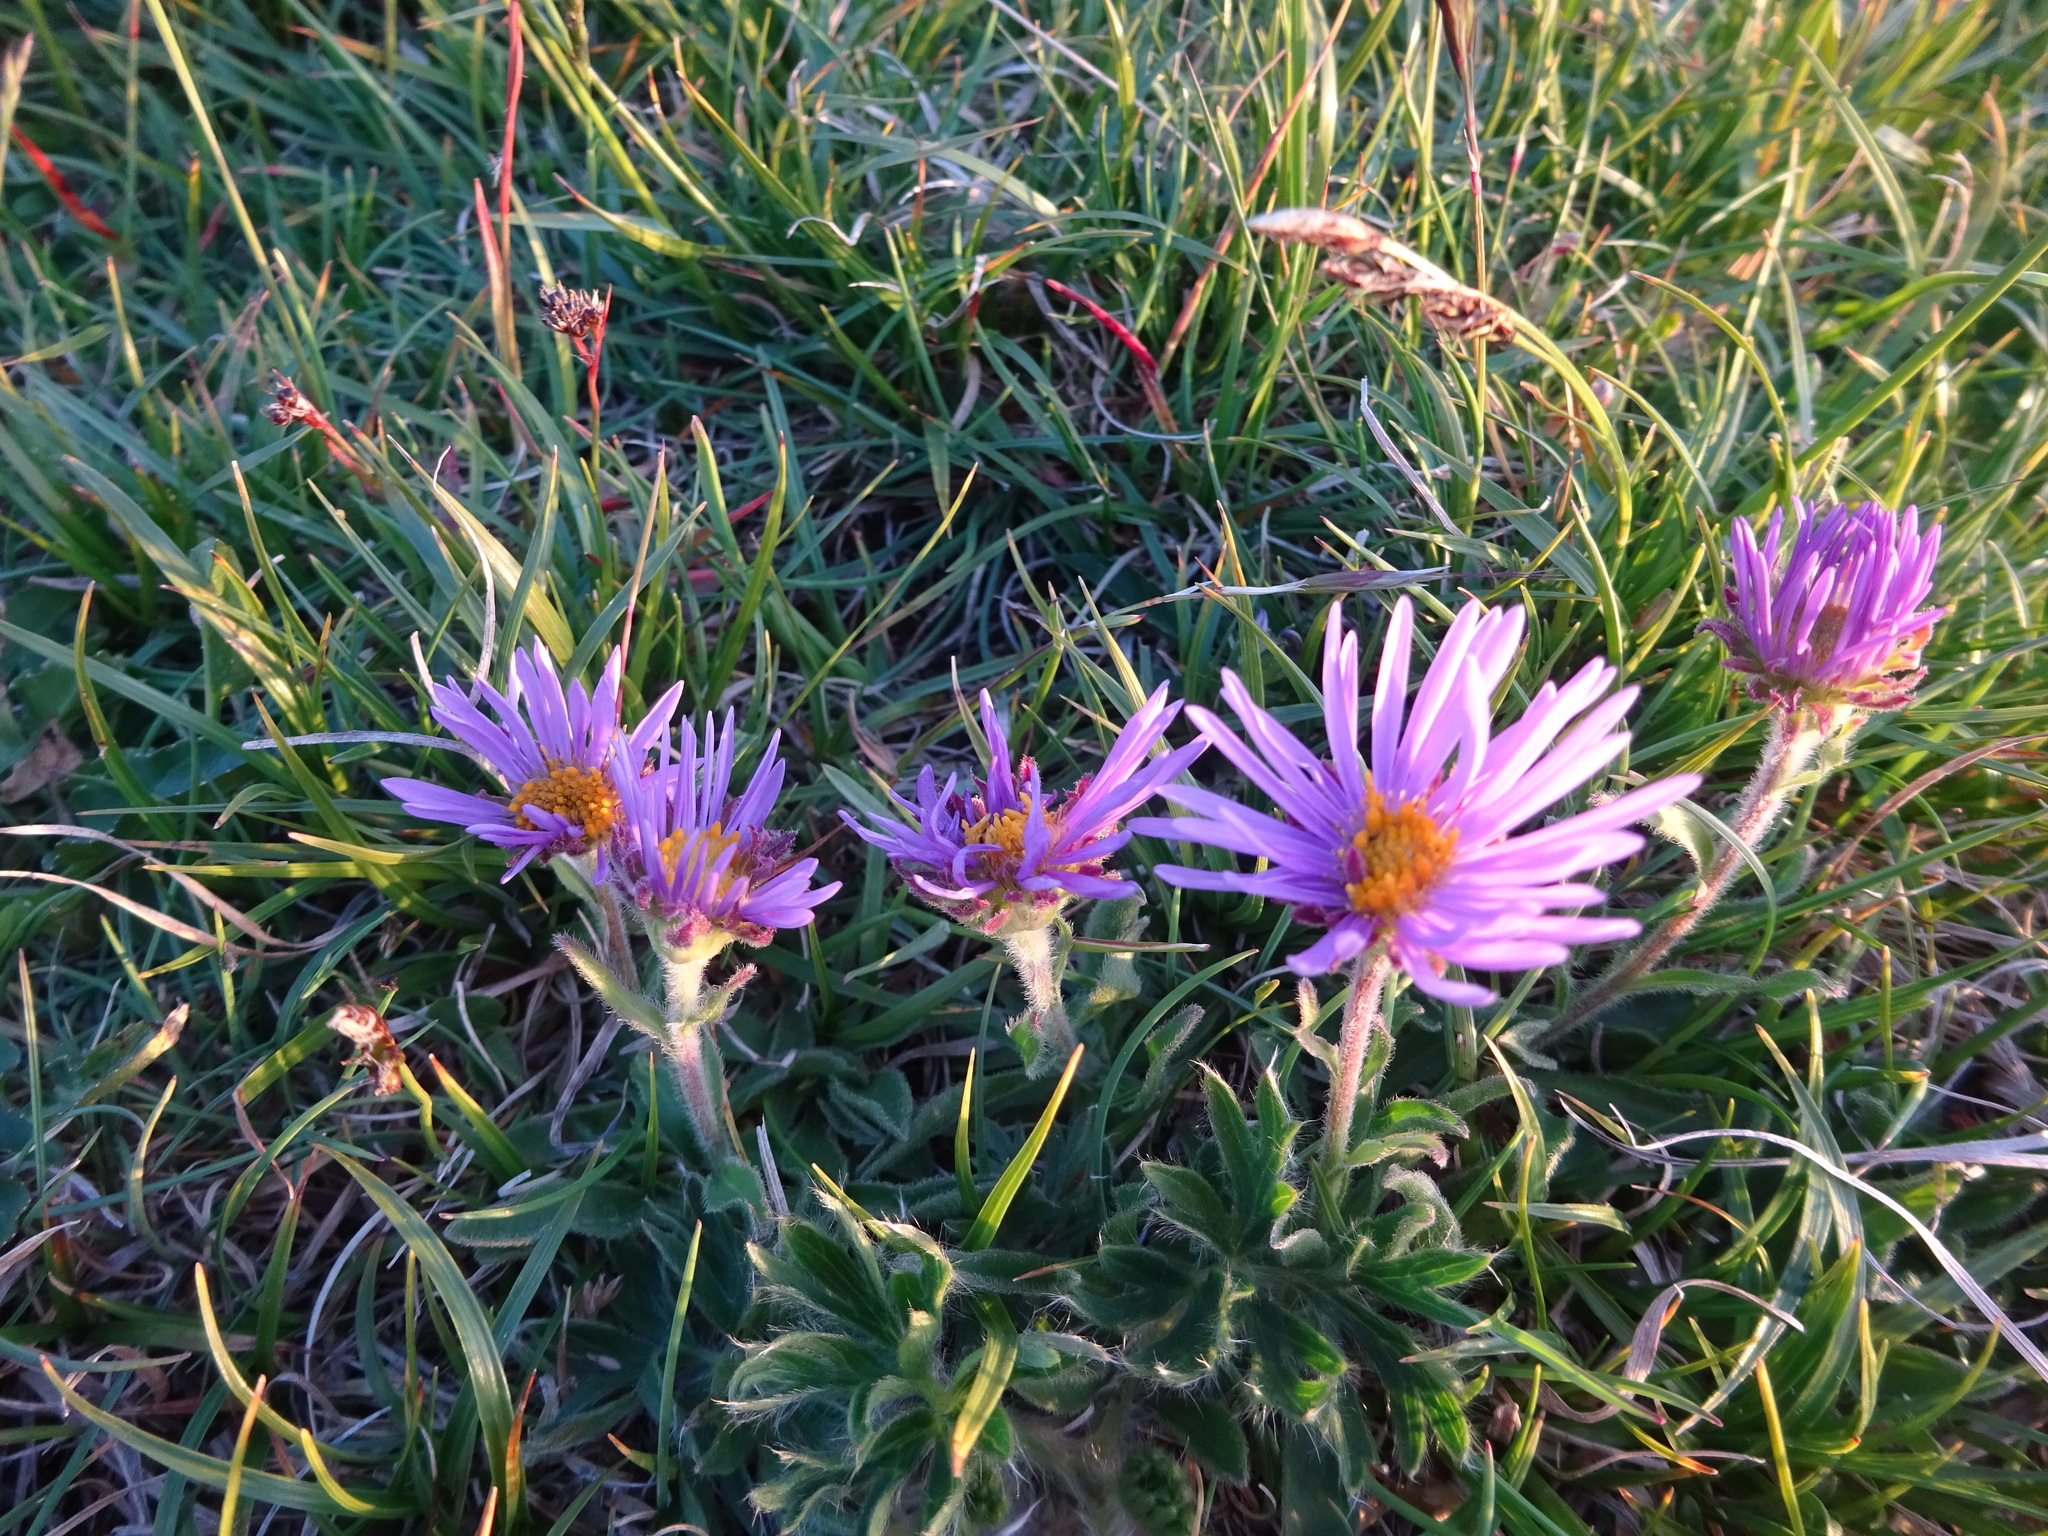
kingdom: Plantae
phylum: Tracheophyta
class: Magnoliopsida
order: Asterales
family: Asteraceae
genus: Aster
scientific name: Aster alpinus
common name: Alpine aster
